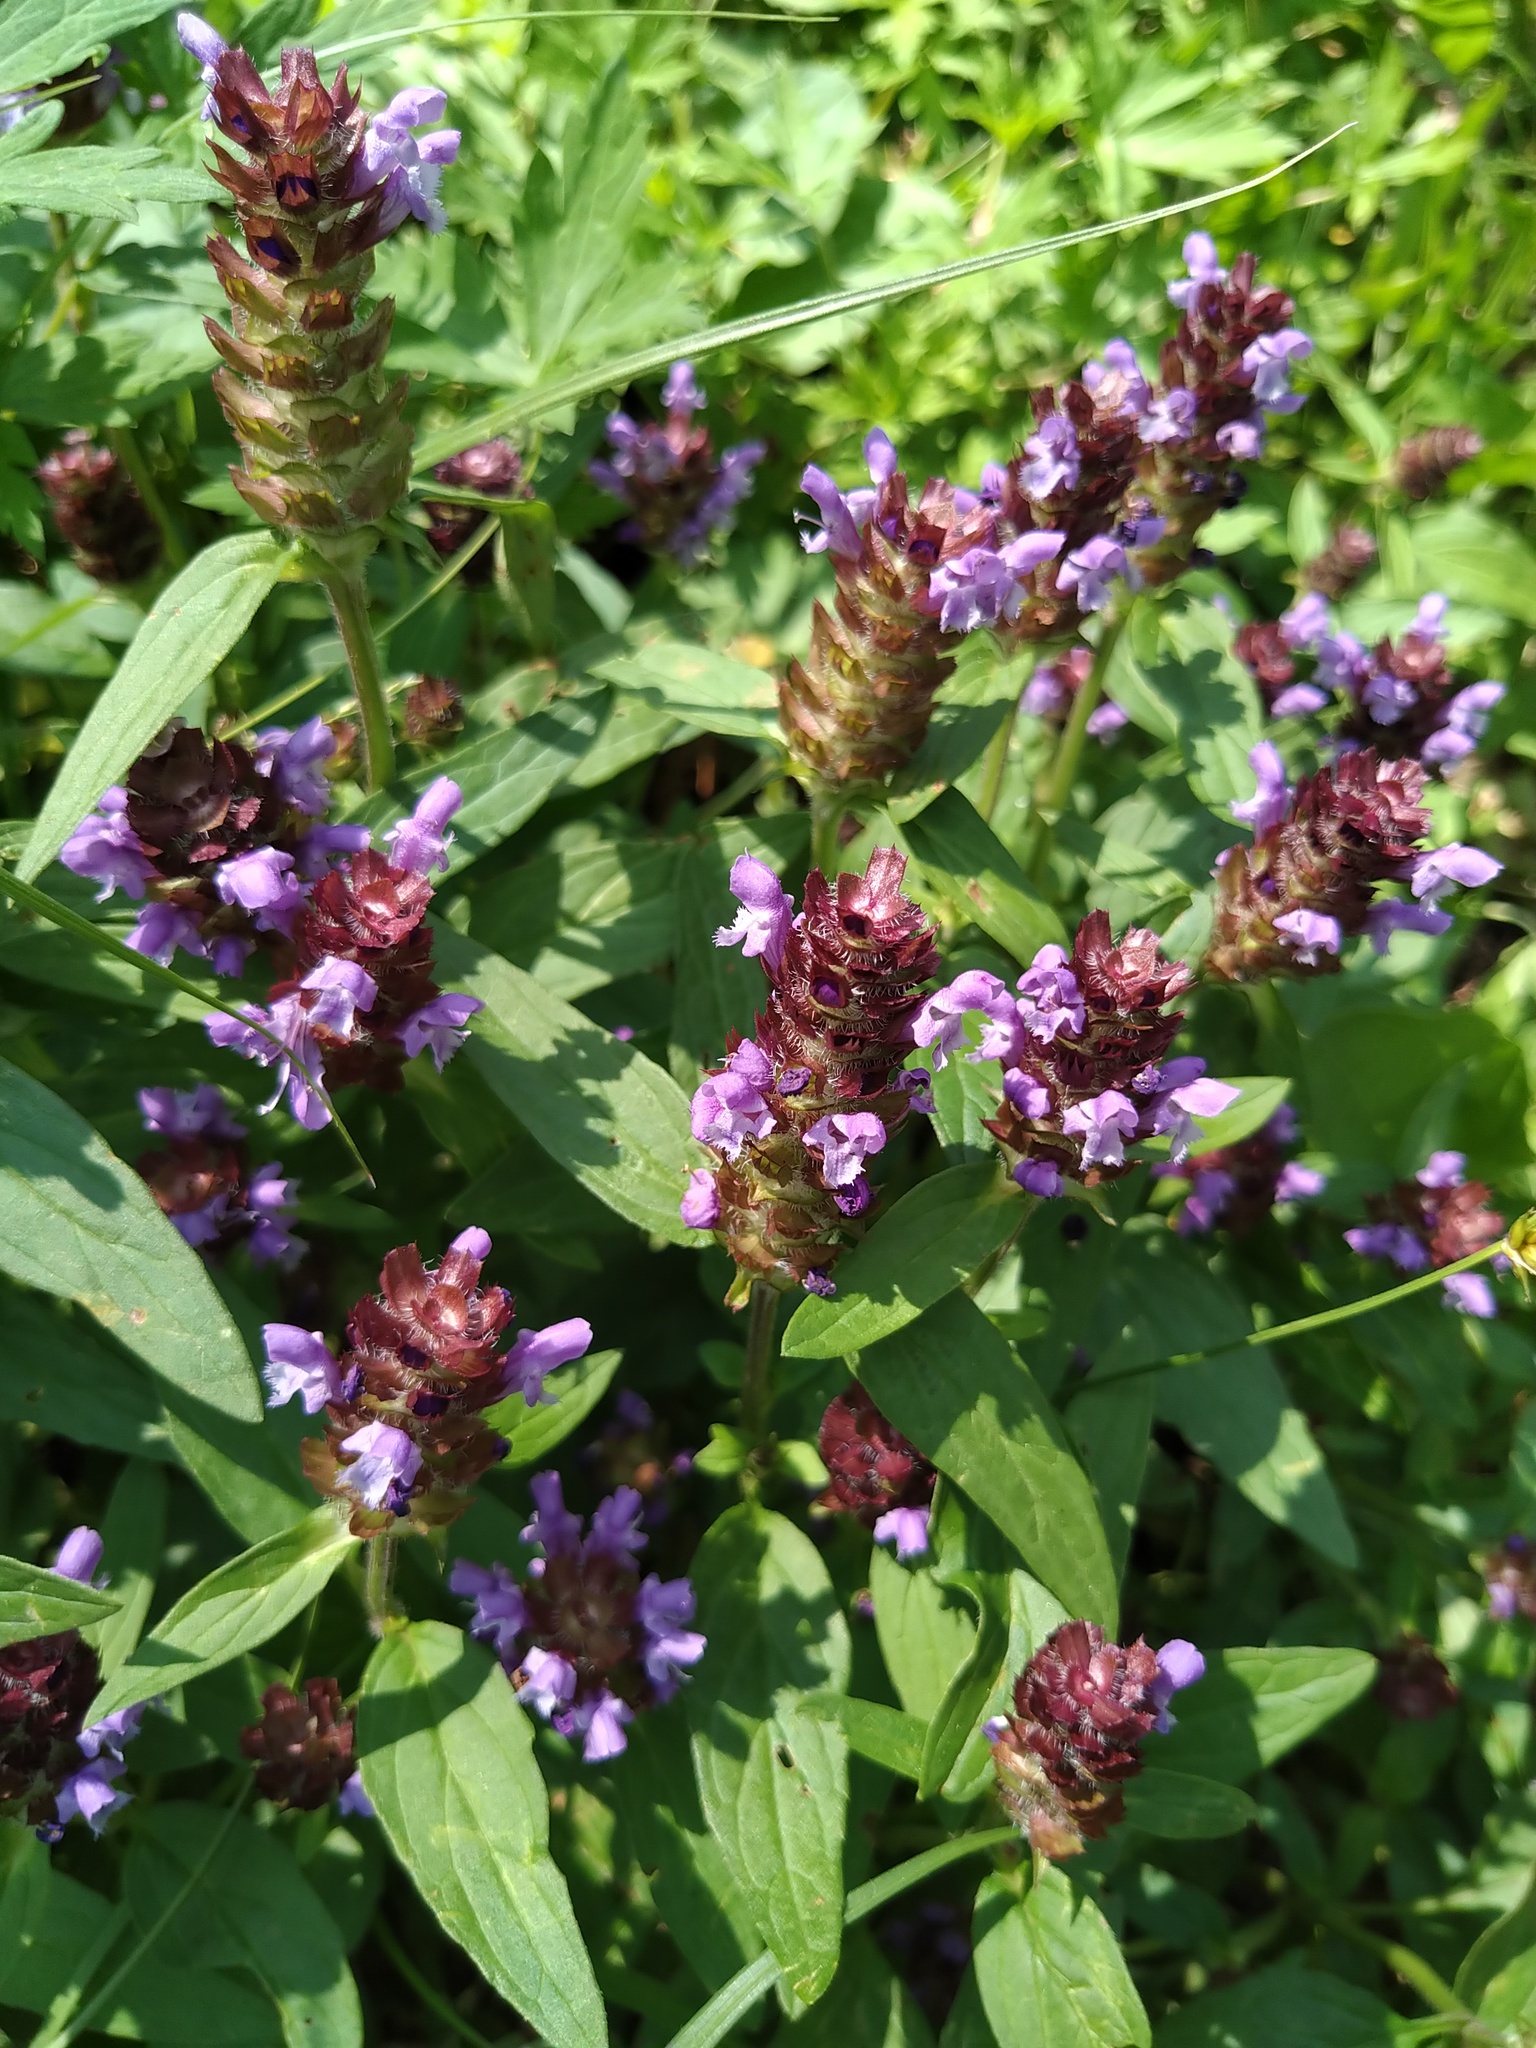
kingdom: Plantae
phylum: Tracheophyta
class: Magnoliopsida
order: Lamiales
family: Lamiaceae
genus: Prunella
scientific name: Prunella vulgaris
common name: Heal-all
